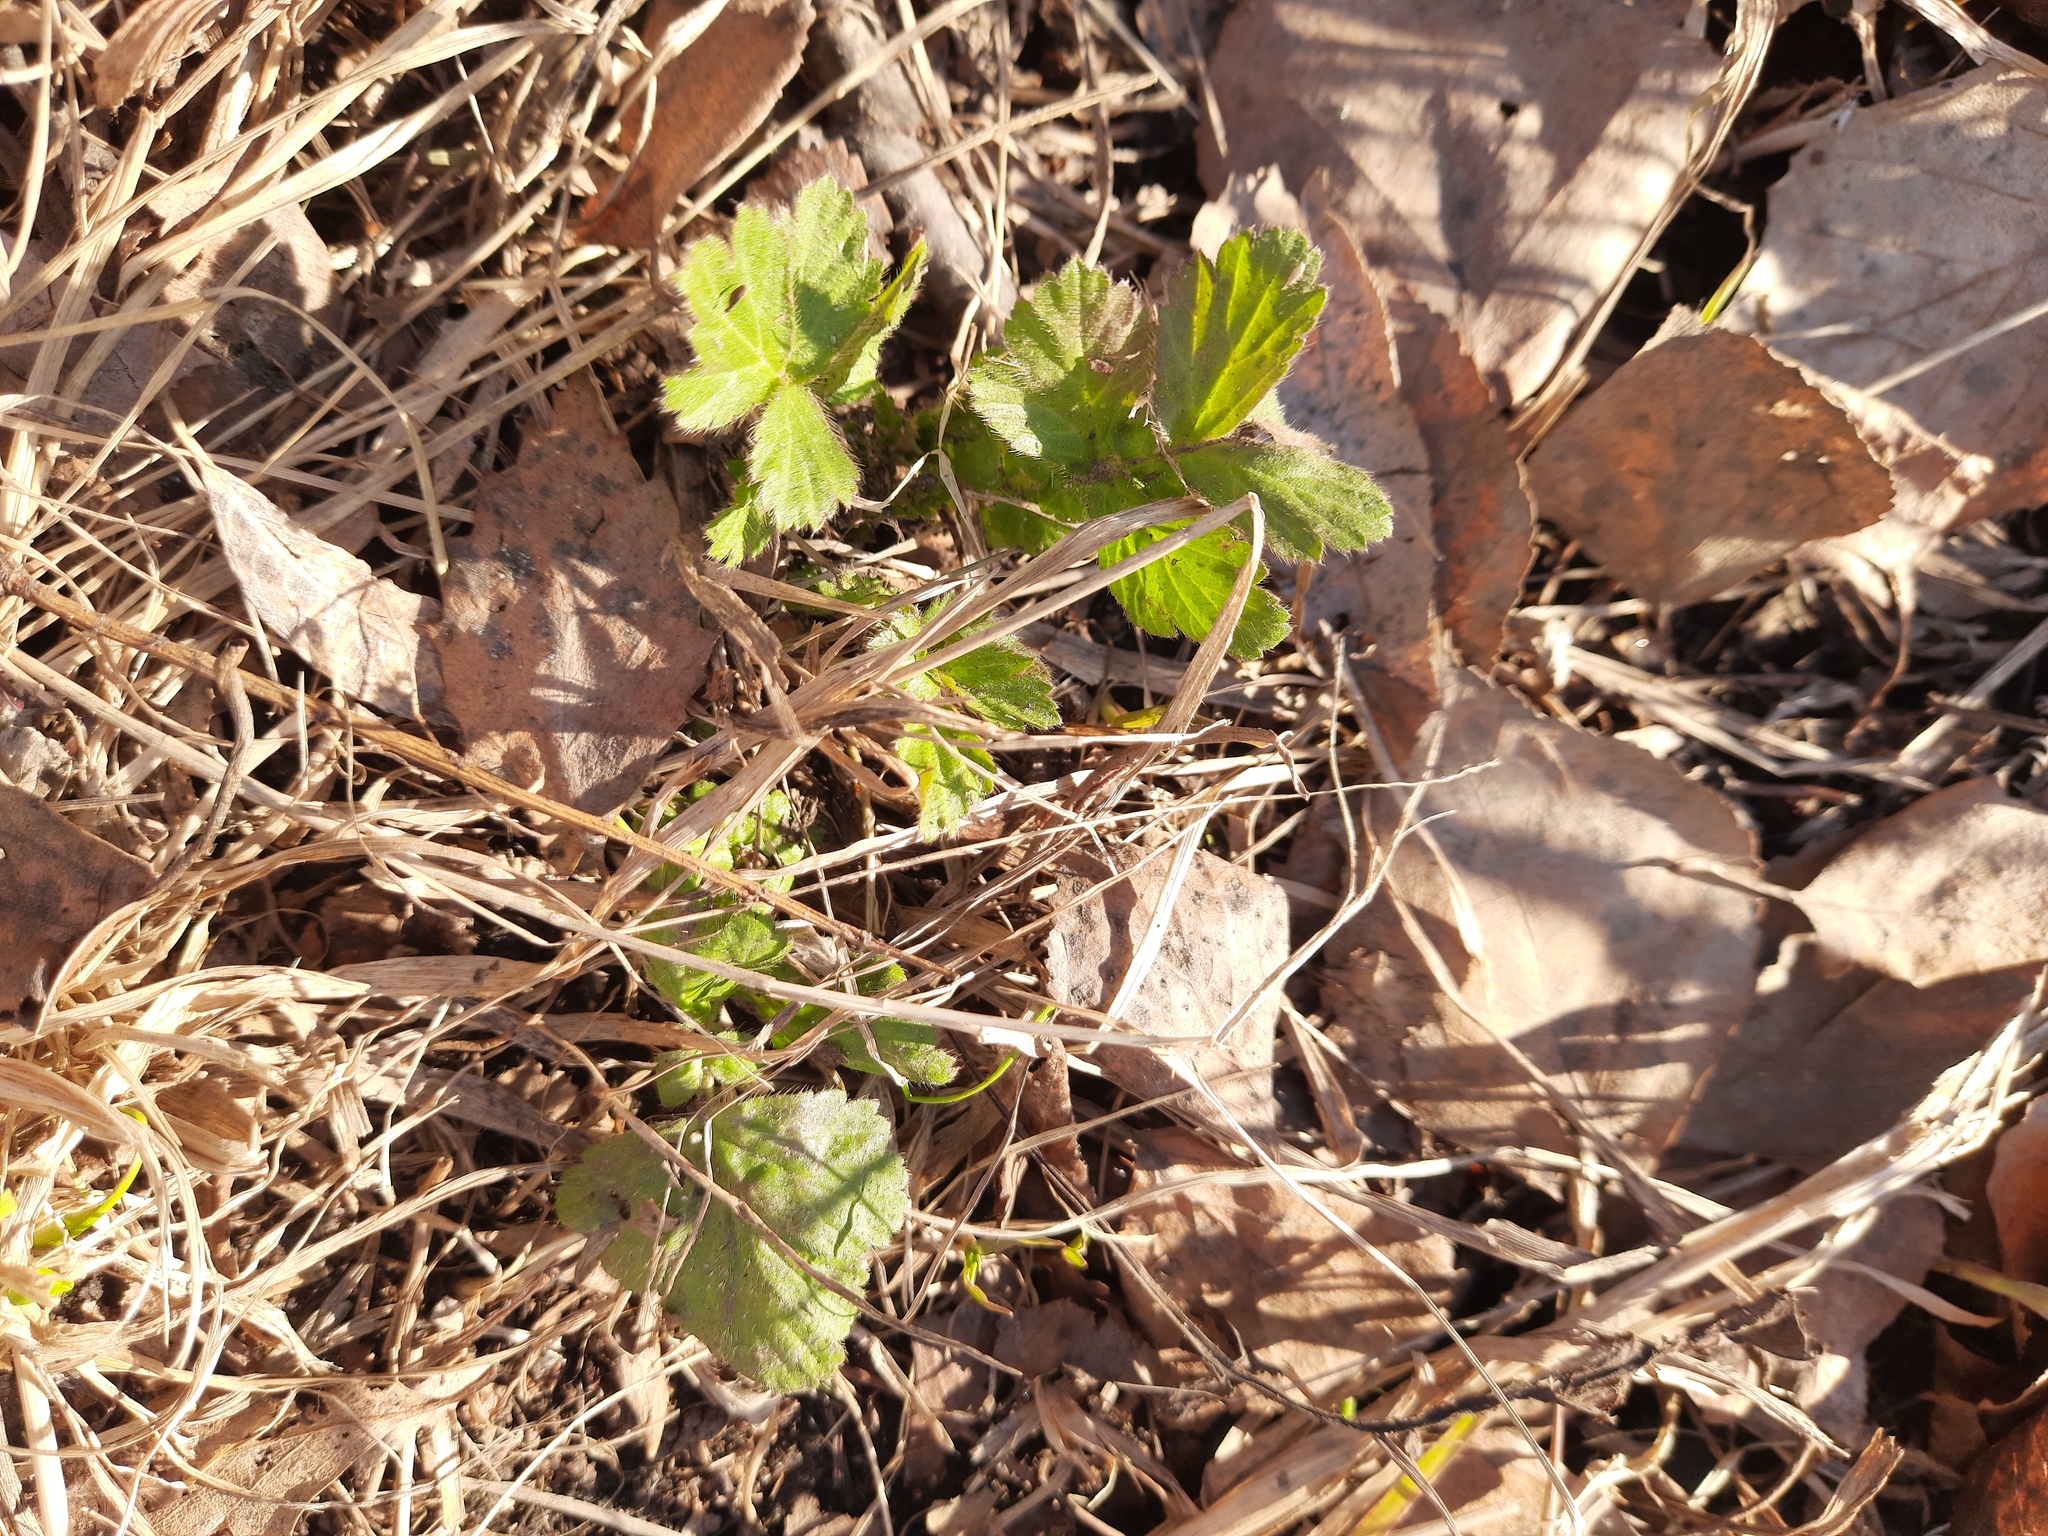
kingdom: Plantae
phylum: Tracheophyta
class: Magnoliopsida
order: Rosales
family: Rosaceae
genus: Geum
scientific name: Geum aleppicum
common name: Yellow avens
